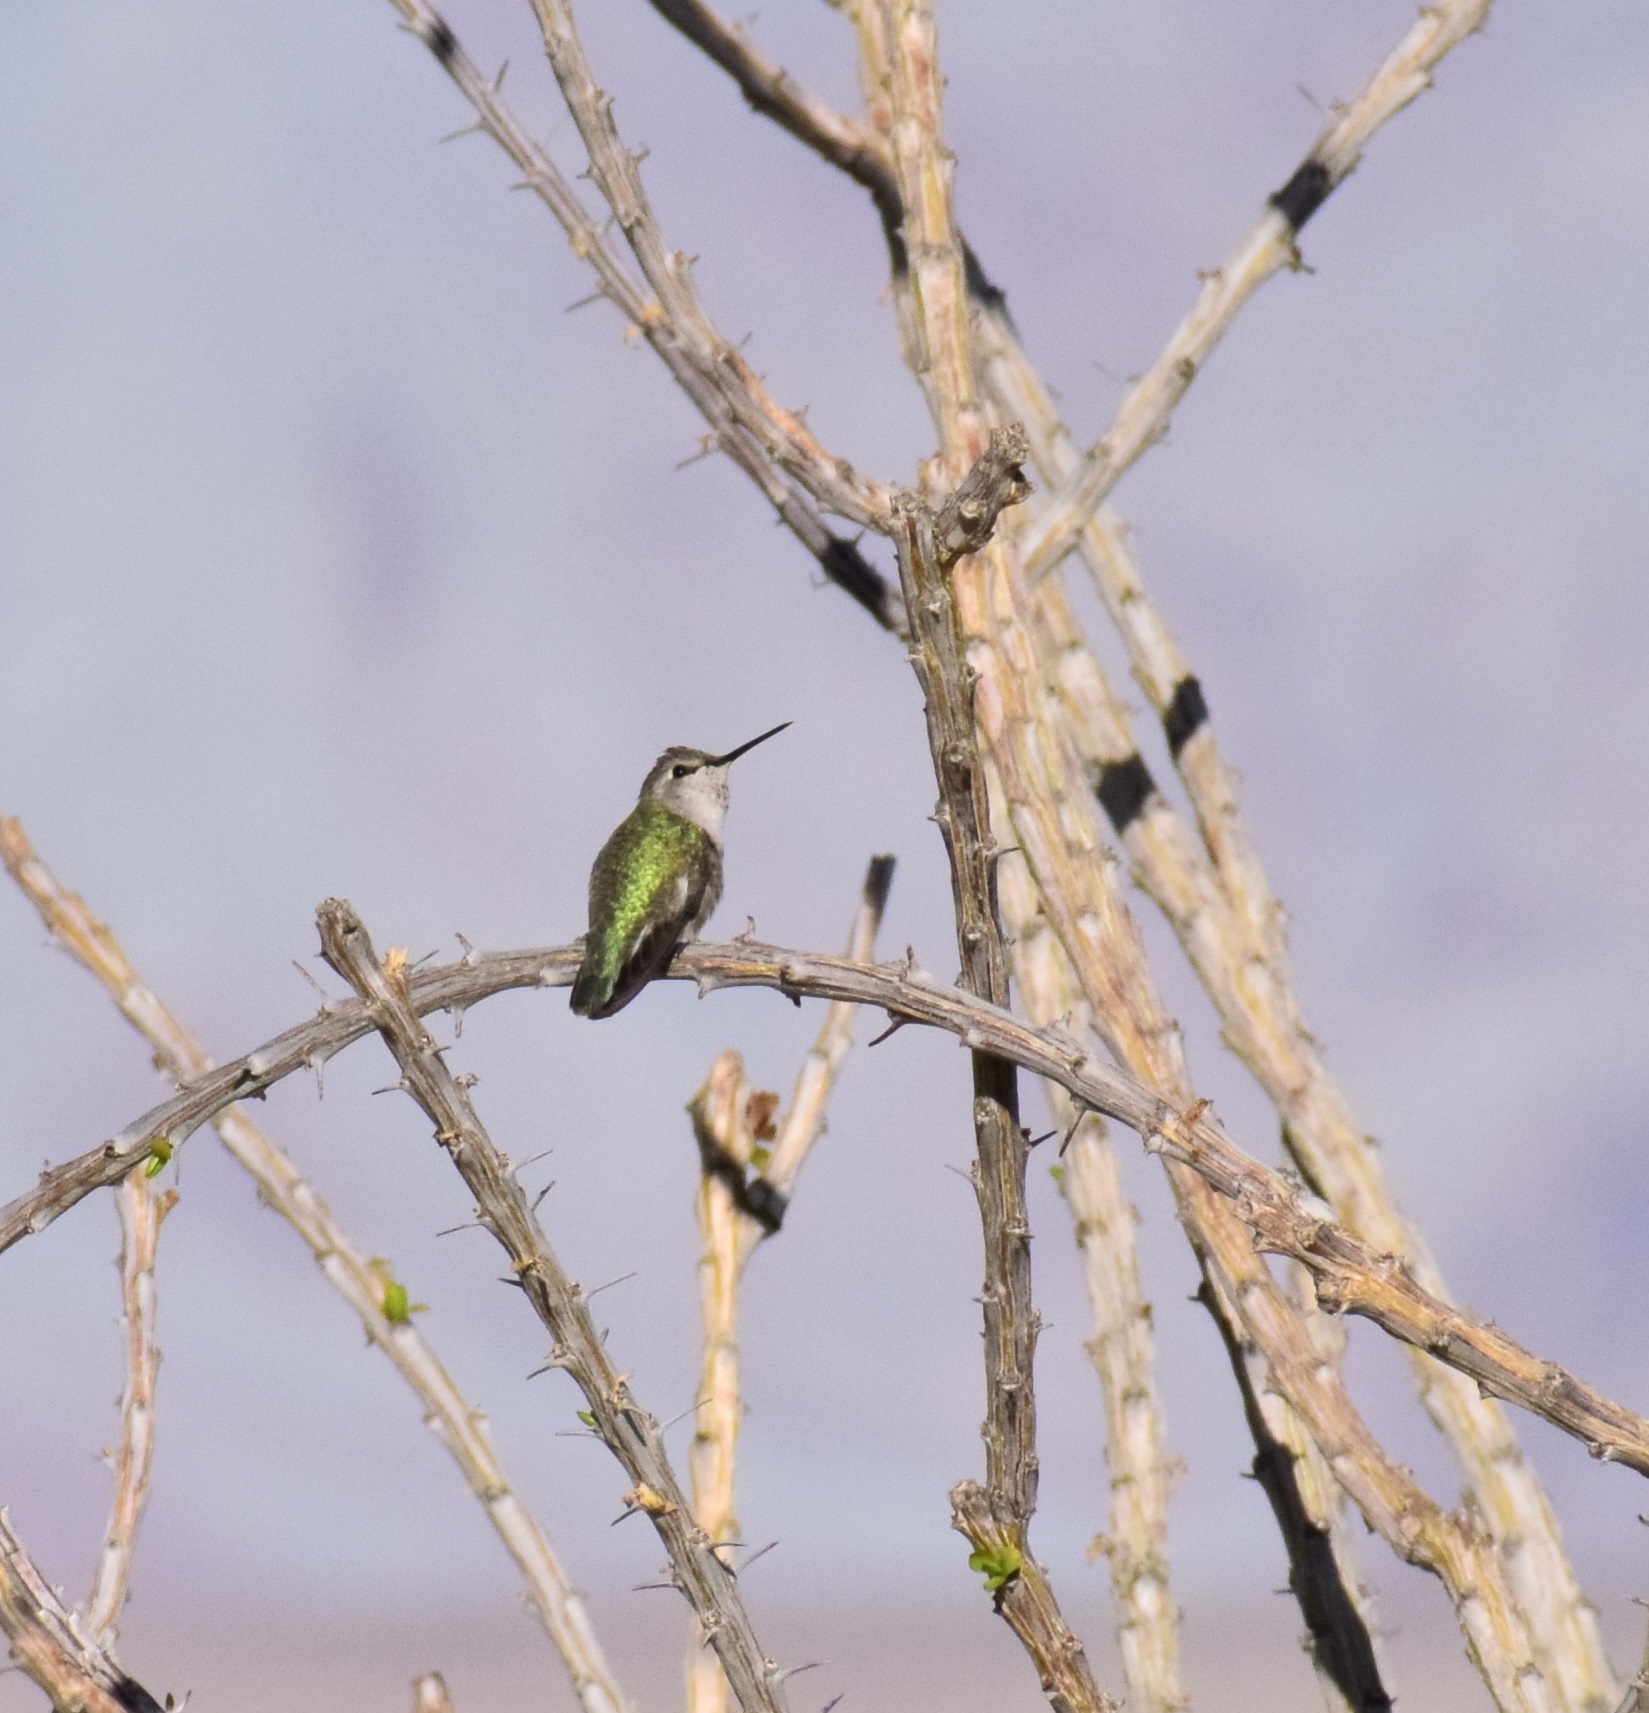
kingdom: Animalia
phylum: Chordata
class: Aves
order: Apodiformes
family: Trochilidae
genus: Calypte
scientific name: Calypte anna
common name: Anna's hummingbird
